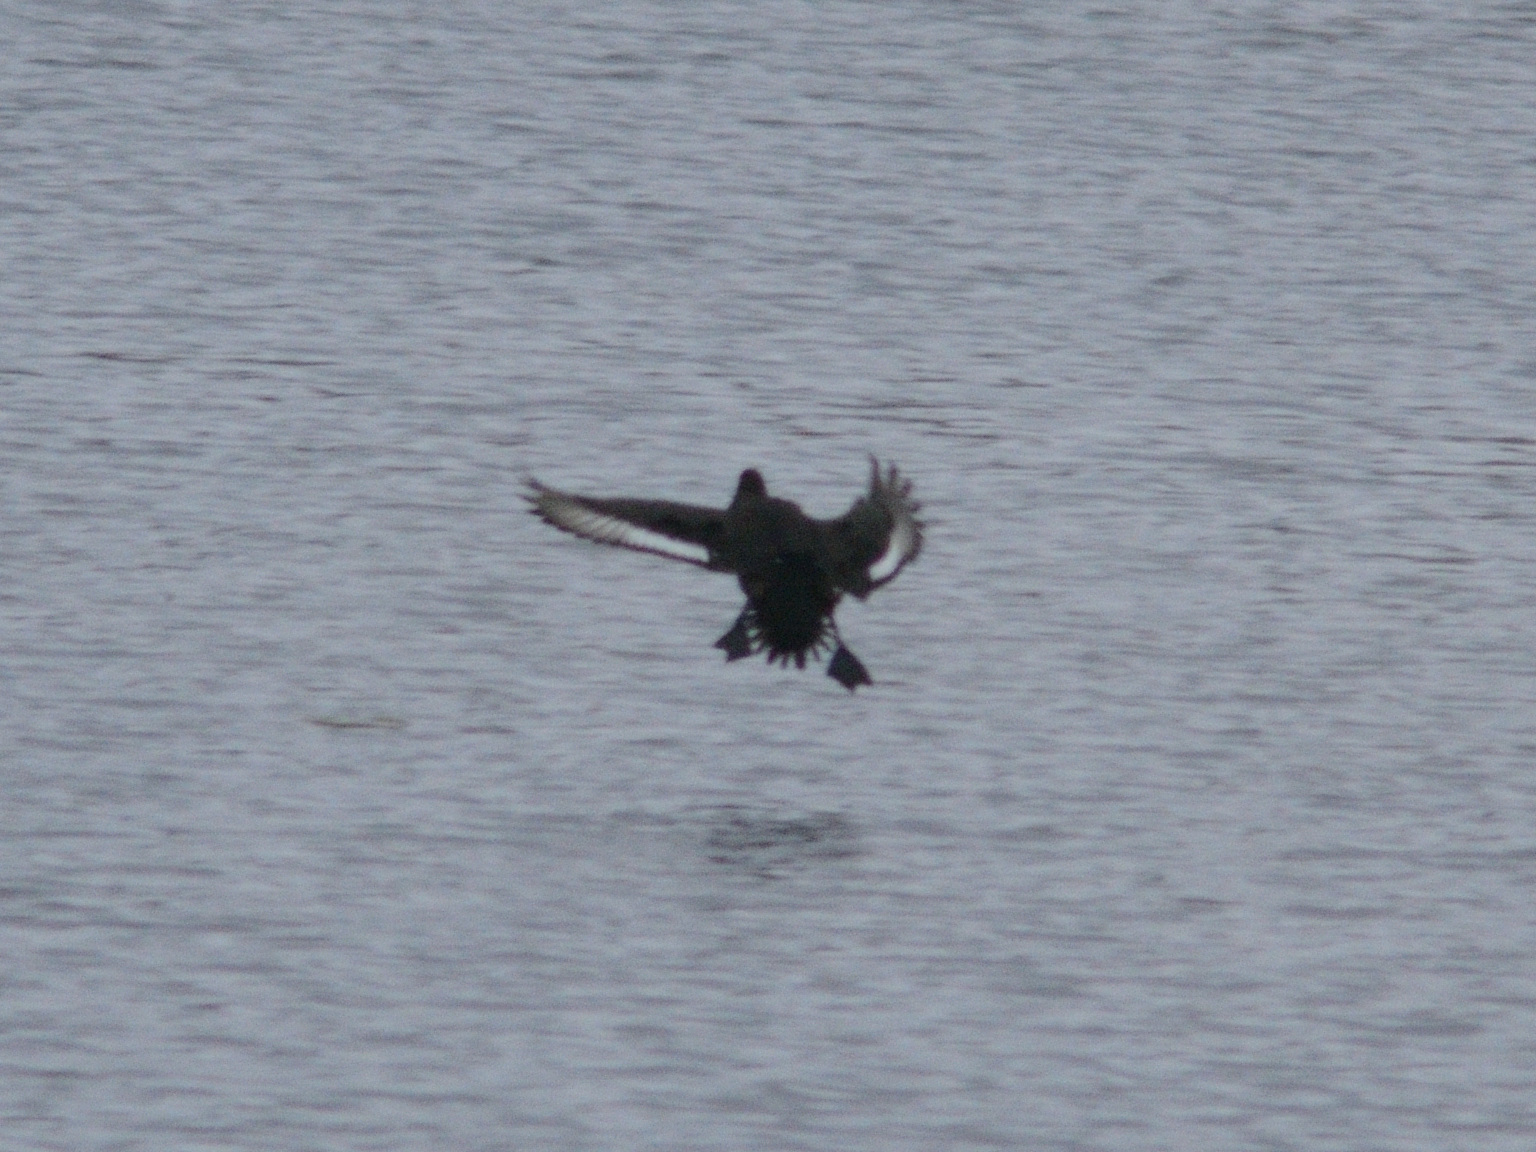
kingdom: Animalia
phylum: Chordata
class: Aves
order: Anseriformes
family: Anatidae
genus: Aythya
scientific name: Aythya fuligula
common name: Tufted duck
